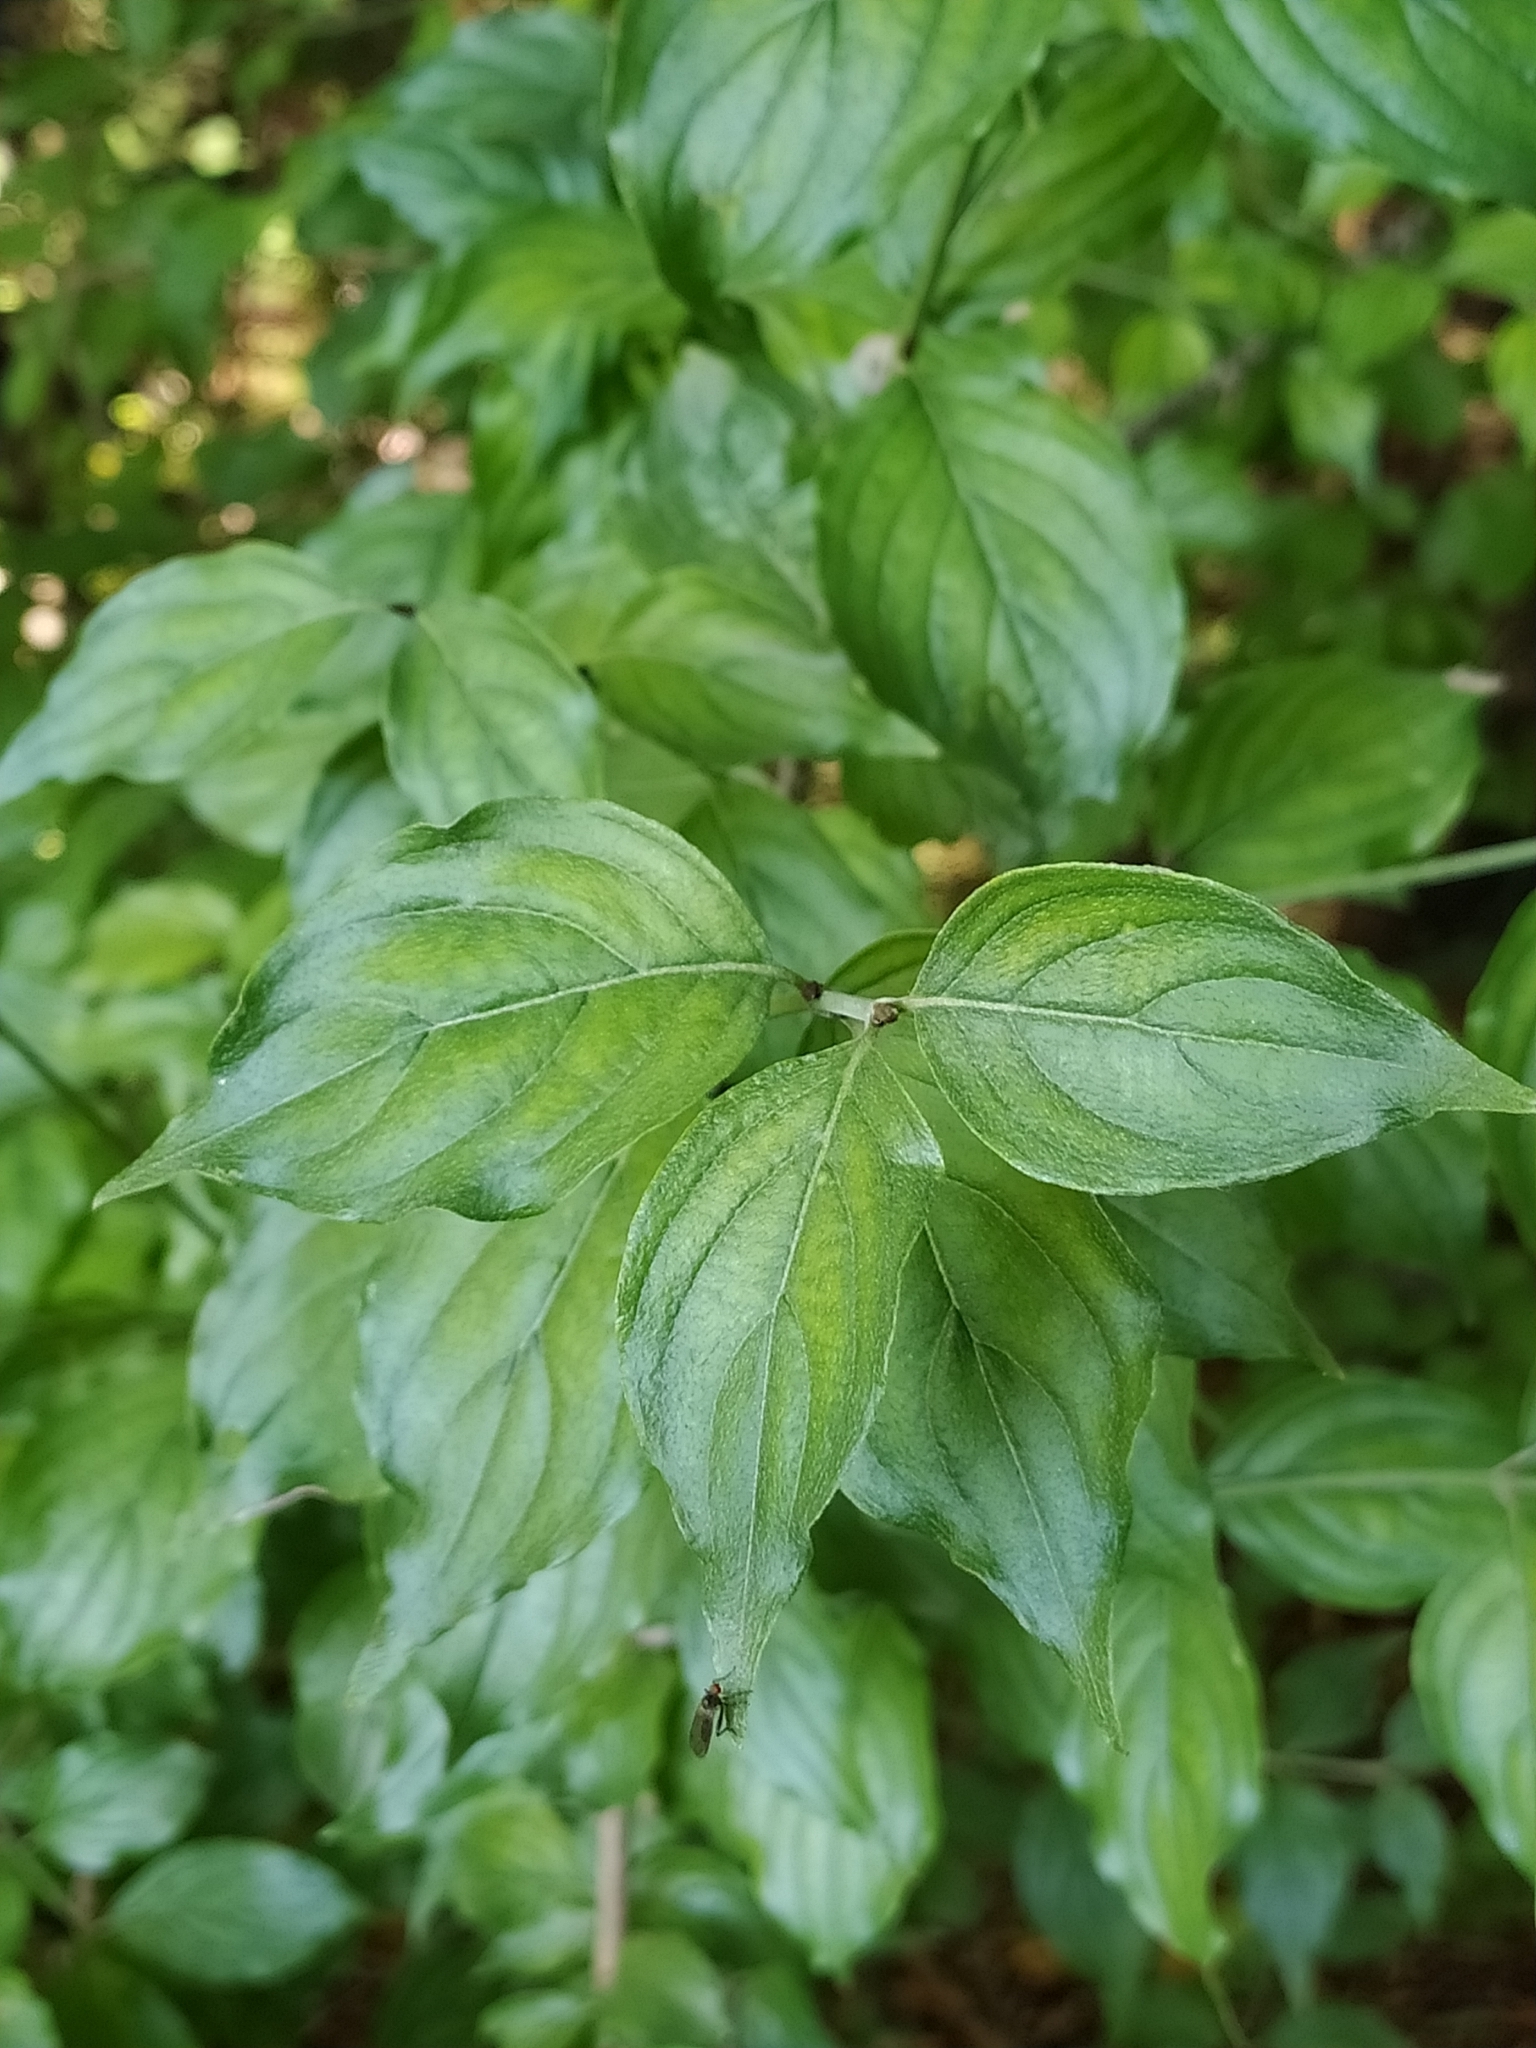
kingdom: Plantae
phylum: Tracheophyta
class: Magnoliopsida
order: Cornales
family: Cornaceae
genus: Cornus
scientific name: Cornus mas
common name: Cornelian-cherry
